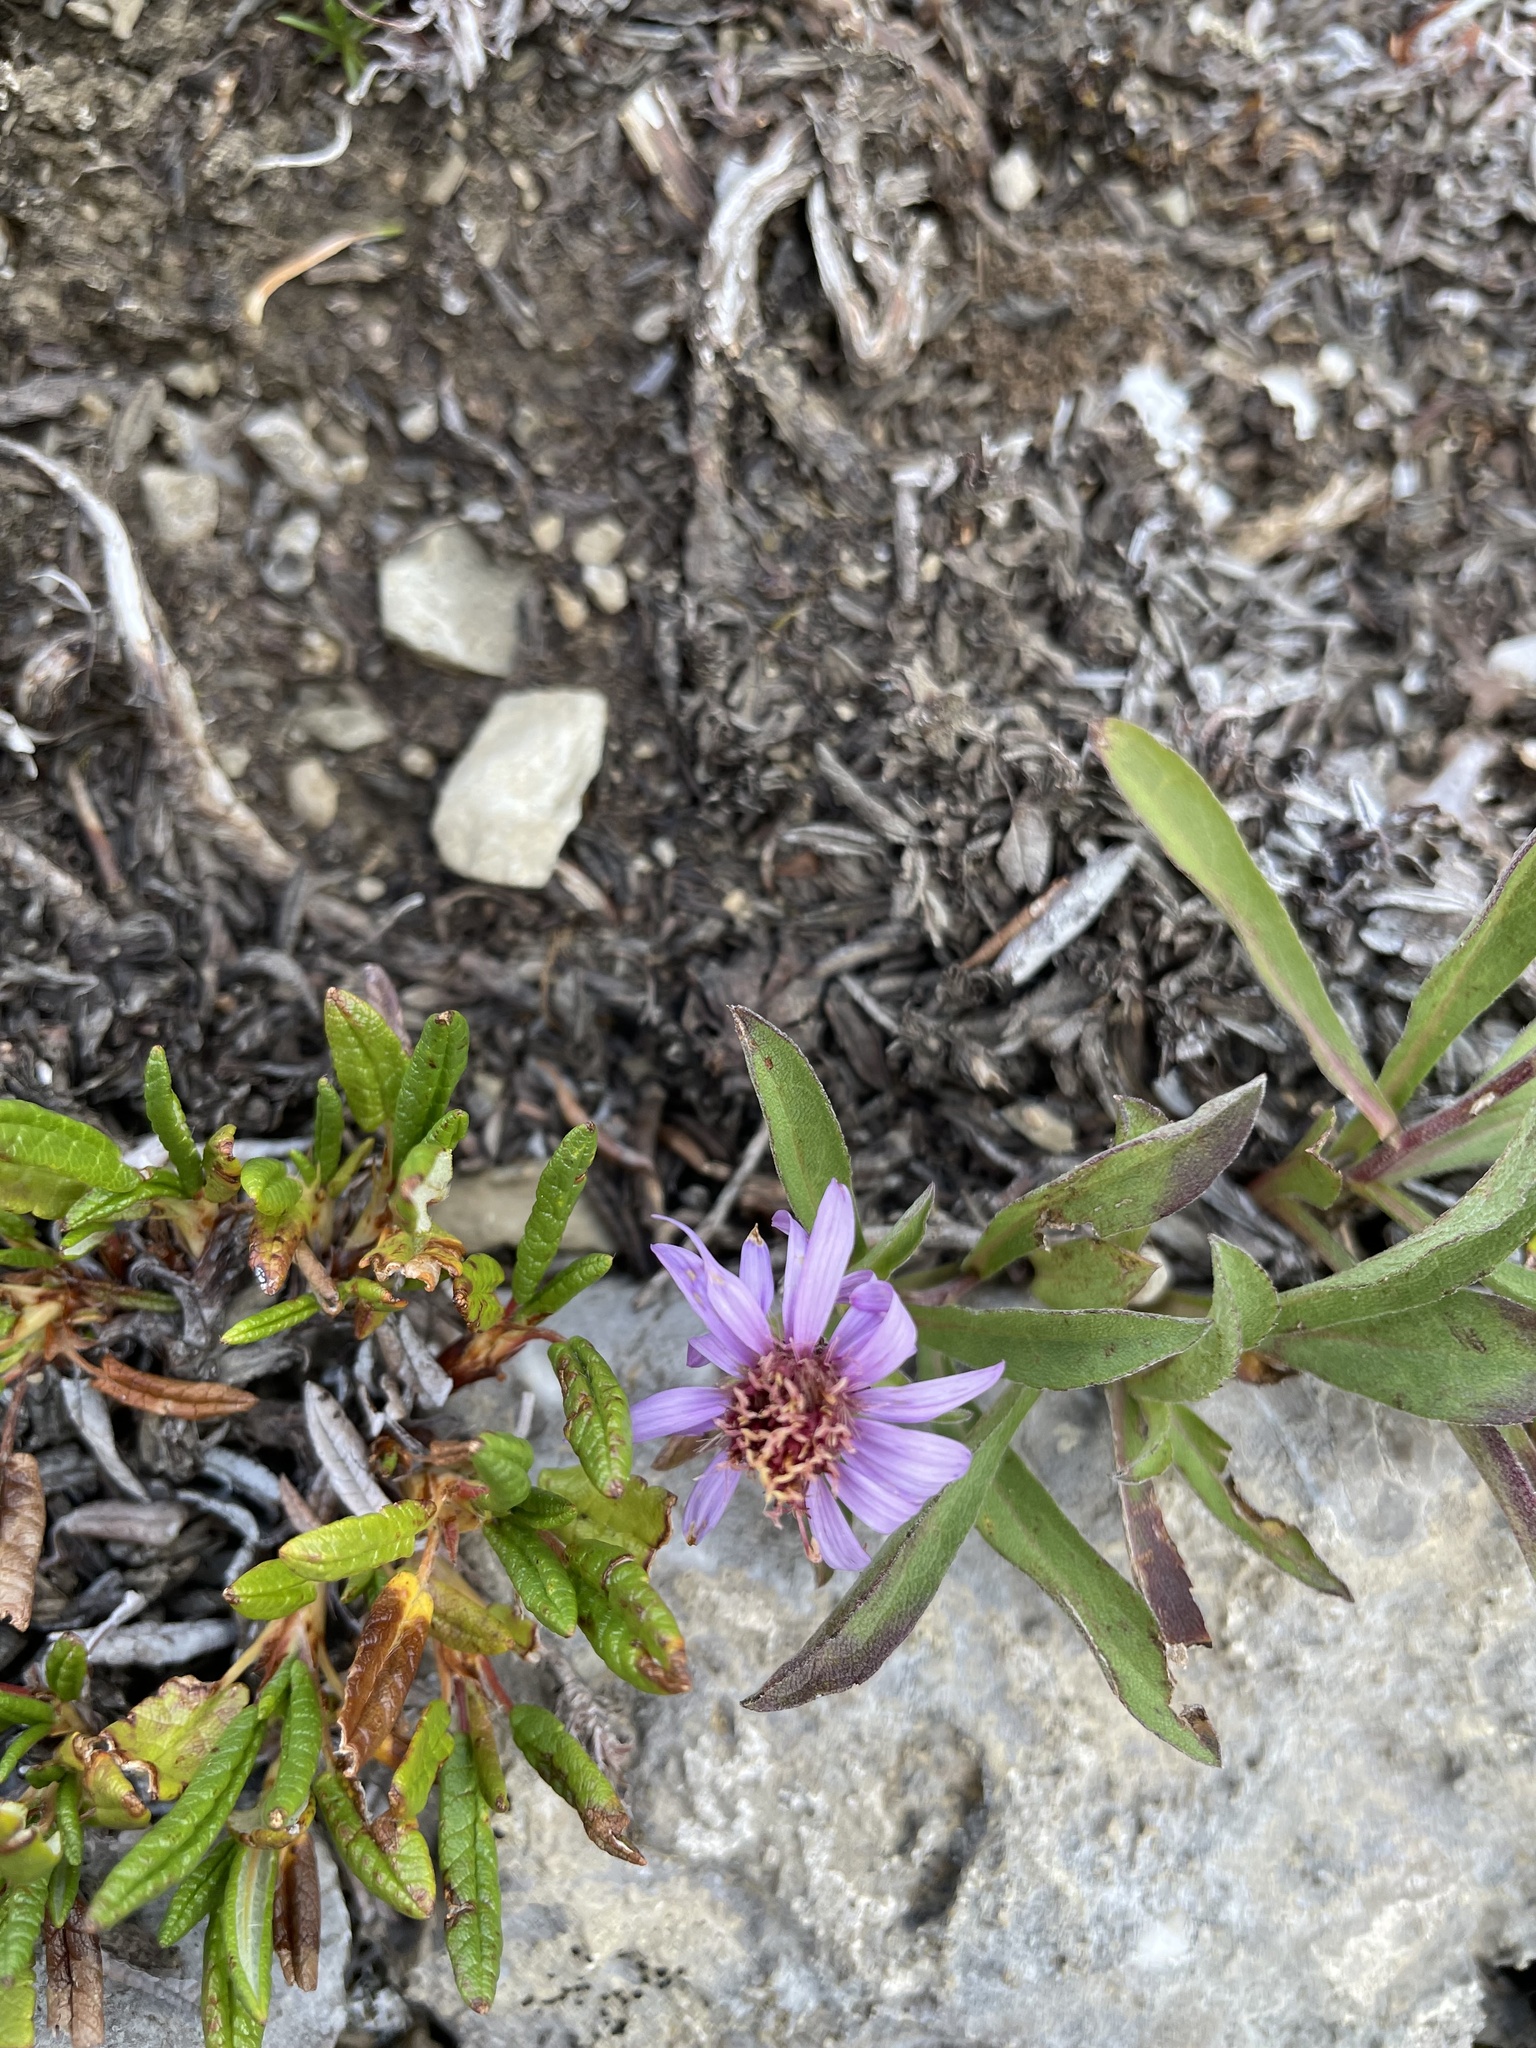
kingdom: Plantae
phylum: Tracheophyta
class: Magnoliopsida
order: Asterales
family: Asteraceae
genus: Eurybia
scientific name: Eurybia sibirica
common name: Arctic aster
